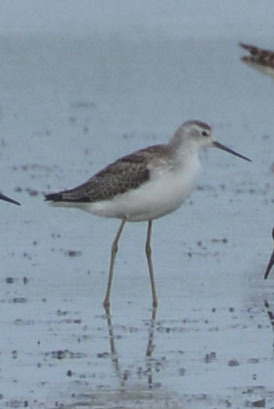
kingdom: Animalia
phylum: Chordata
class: Aves
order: Charadriiformes
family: Scolopacidae
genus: Tringa
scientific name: Tringa stagnatilis
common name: Marsh sandpiper
